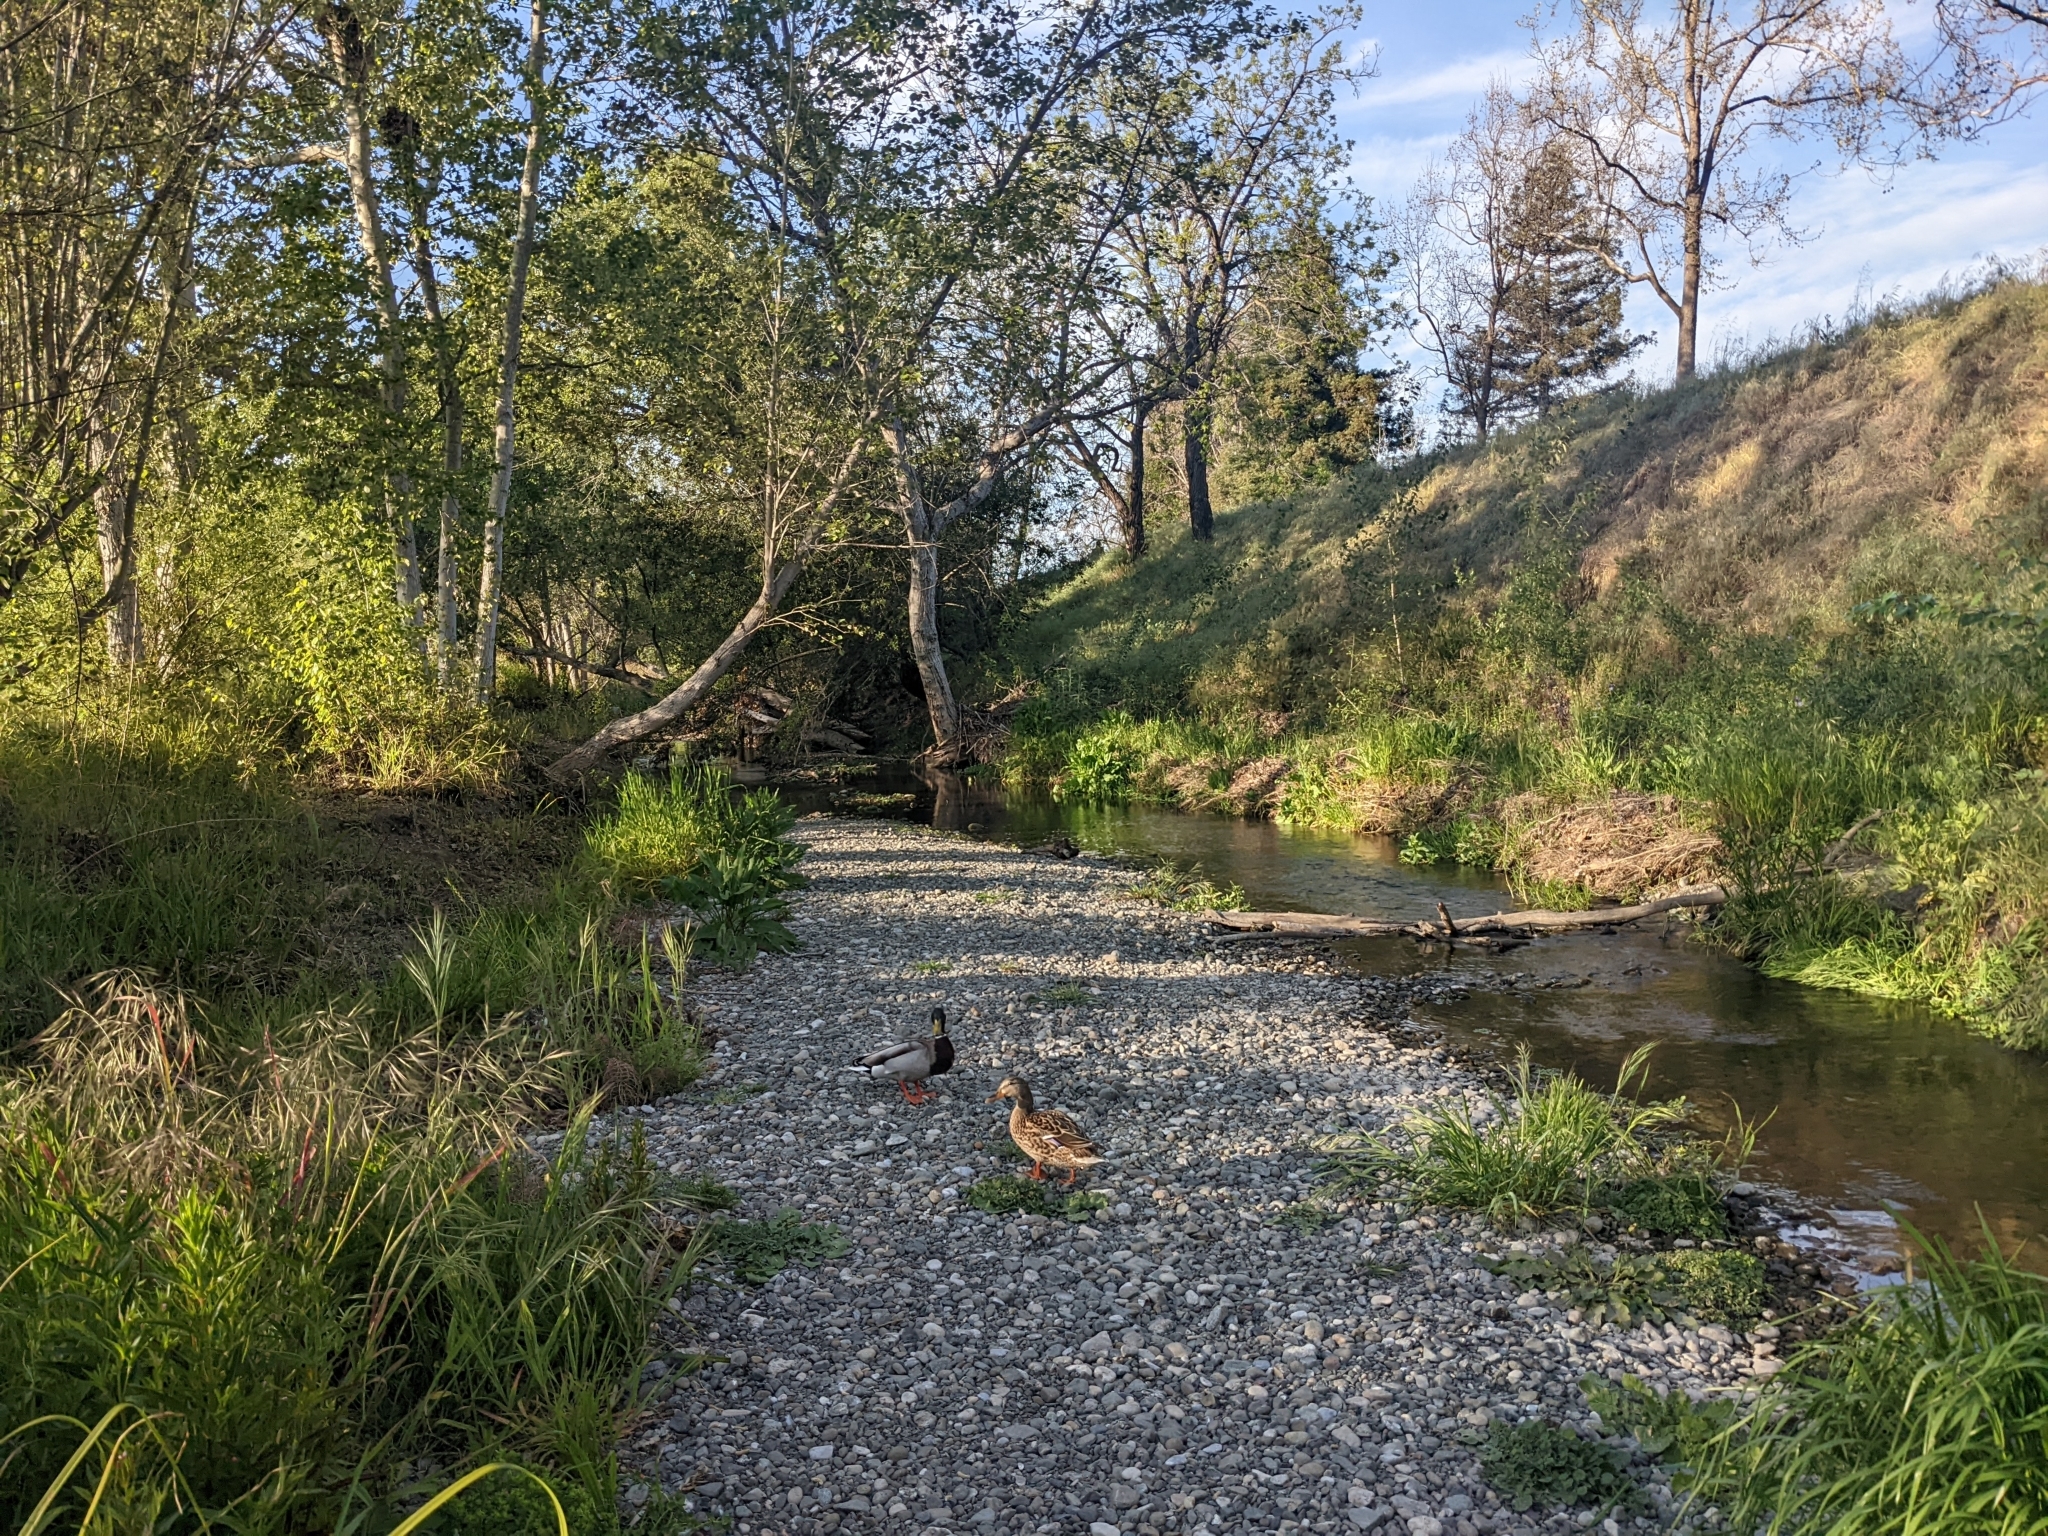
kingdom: Animalia
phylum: Chordata
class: Aves
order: Anseriformes
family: Anatidae
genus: Anas
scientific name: Anas platyrhynchos
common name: Mallard
